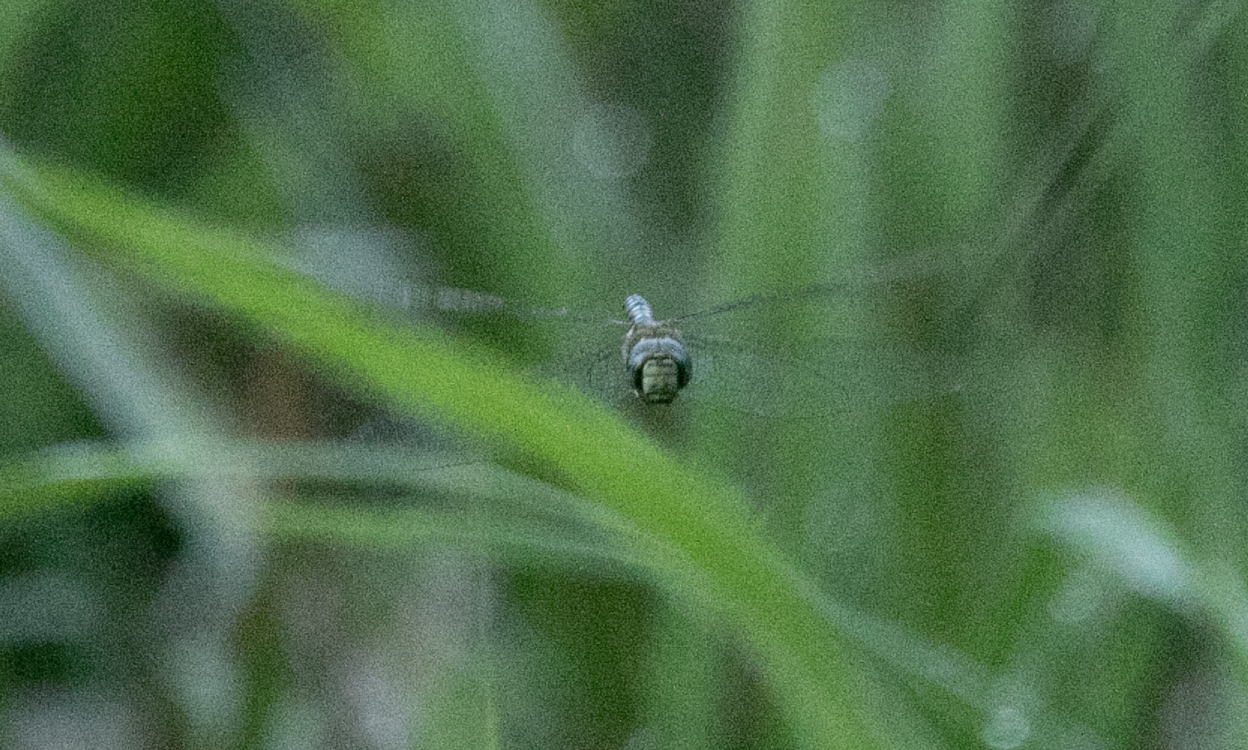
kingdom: Animalia
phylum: Arthropoda
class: Insecta
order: Odonata
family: Aeshnidae
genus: Aeshna
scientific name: Aeshna mixta
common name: Migrant hawker
